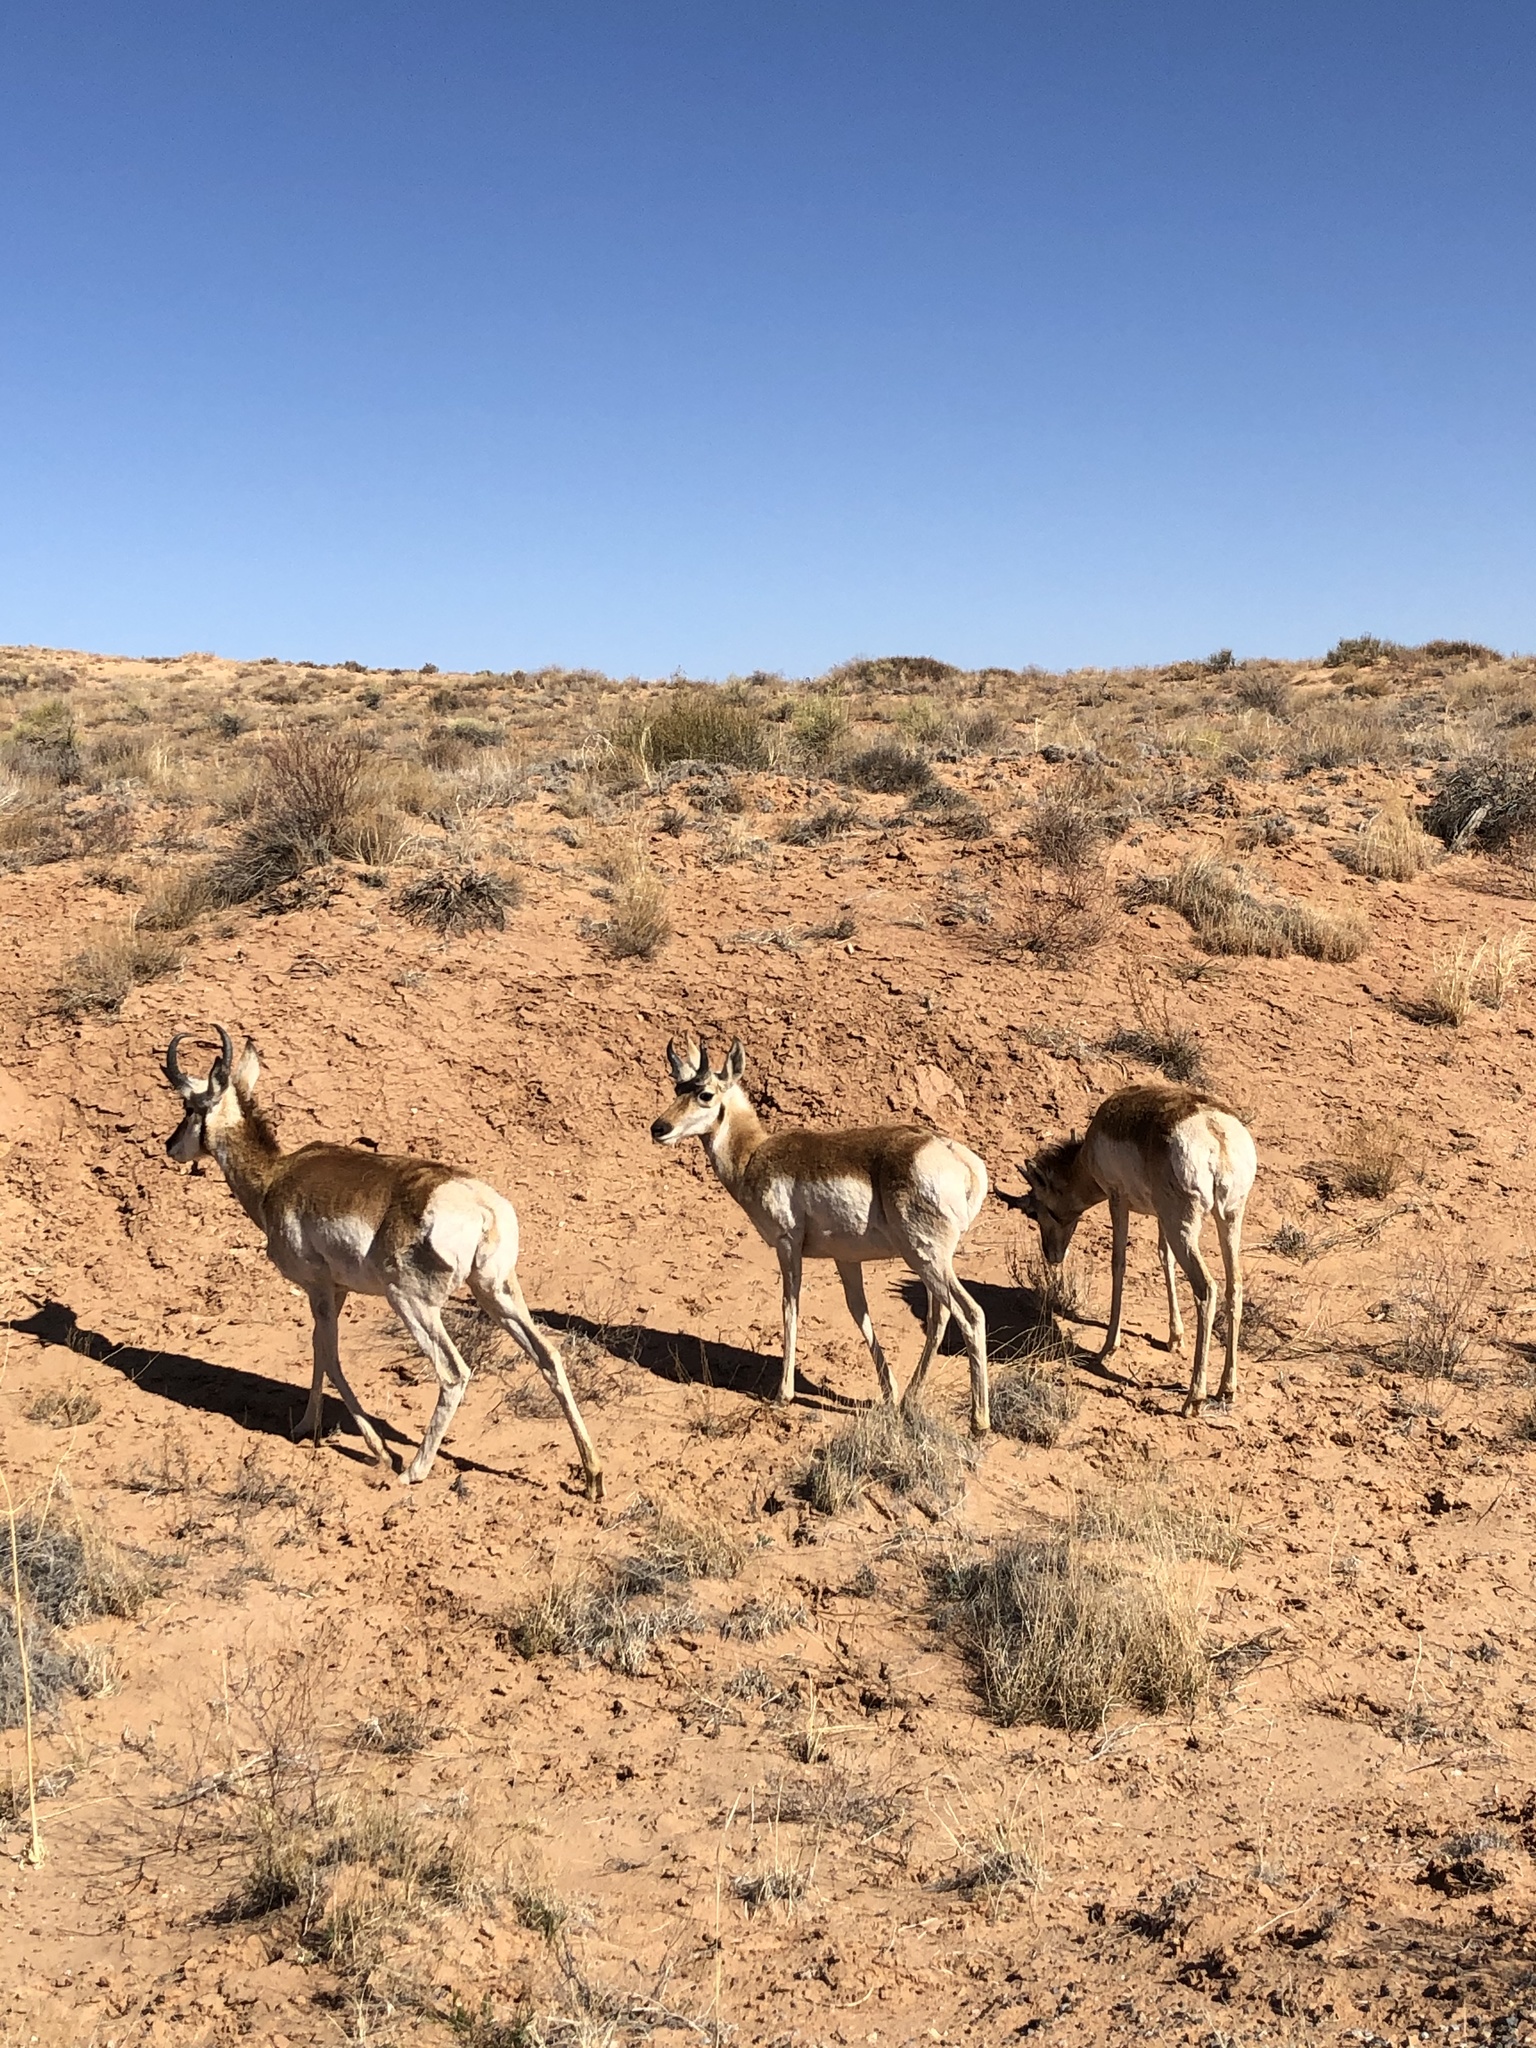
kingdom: Animalia
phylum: Chordata
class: Mammalia
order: Artiodactyla
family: Antilocapridae
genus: Antilocapra
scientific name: Antilocapra americana
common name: Pronghorn
